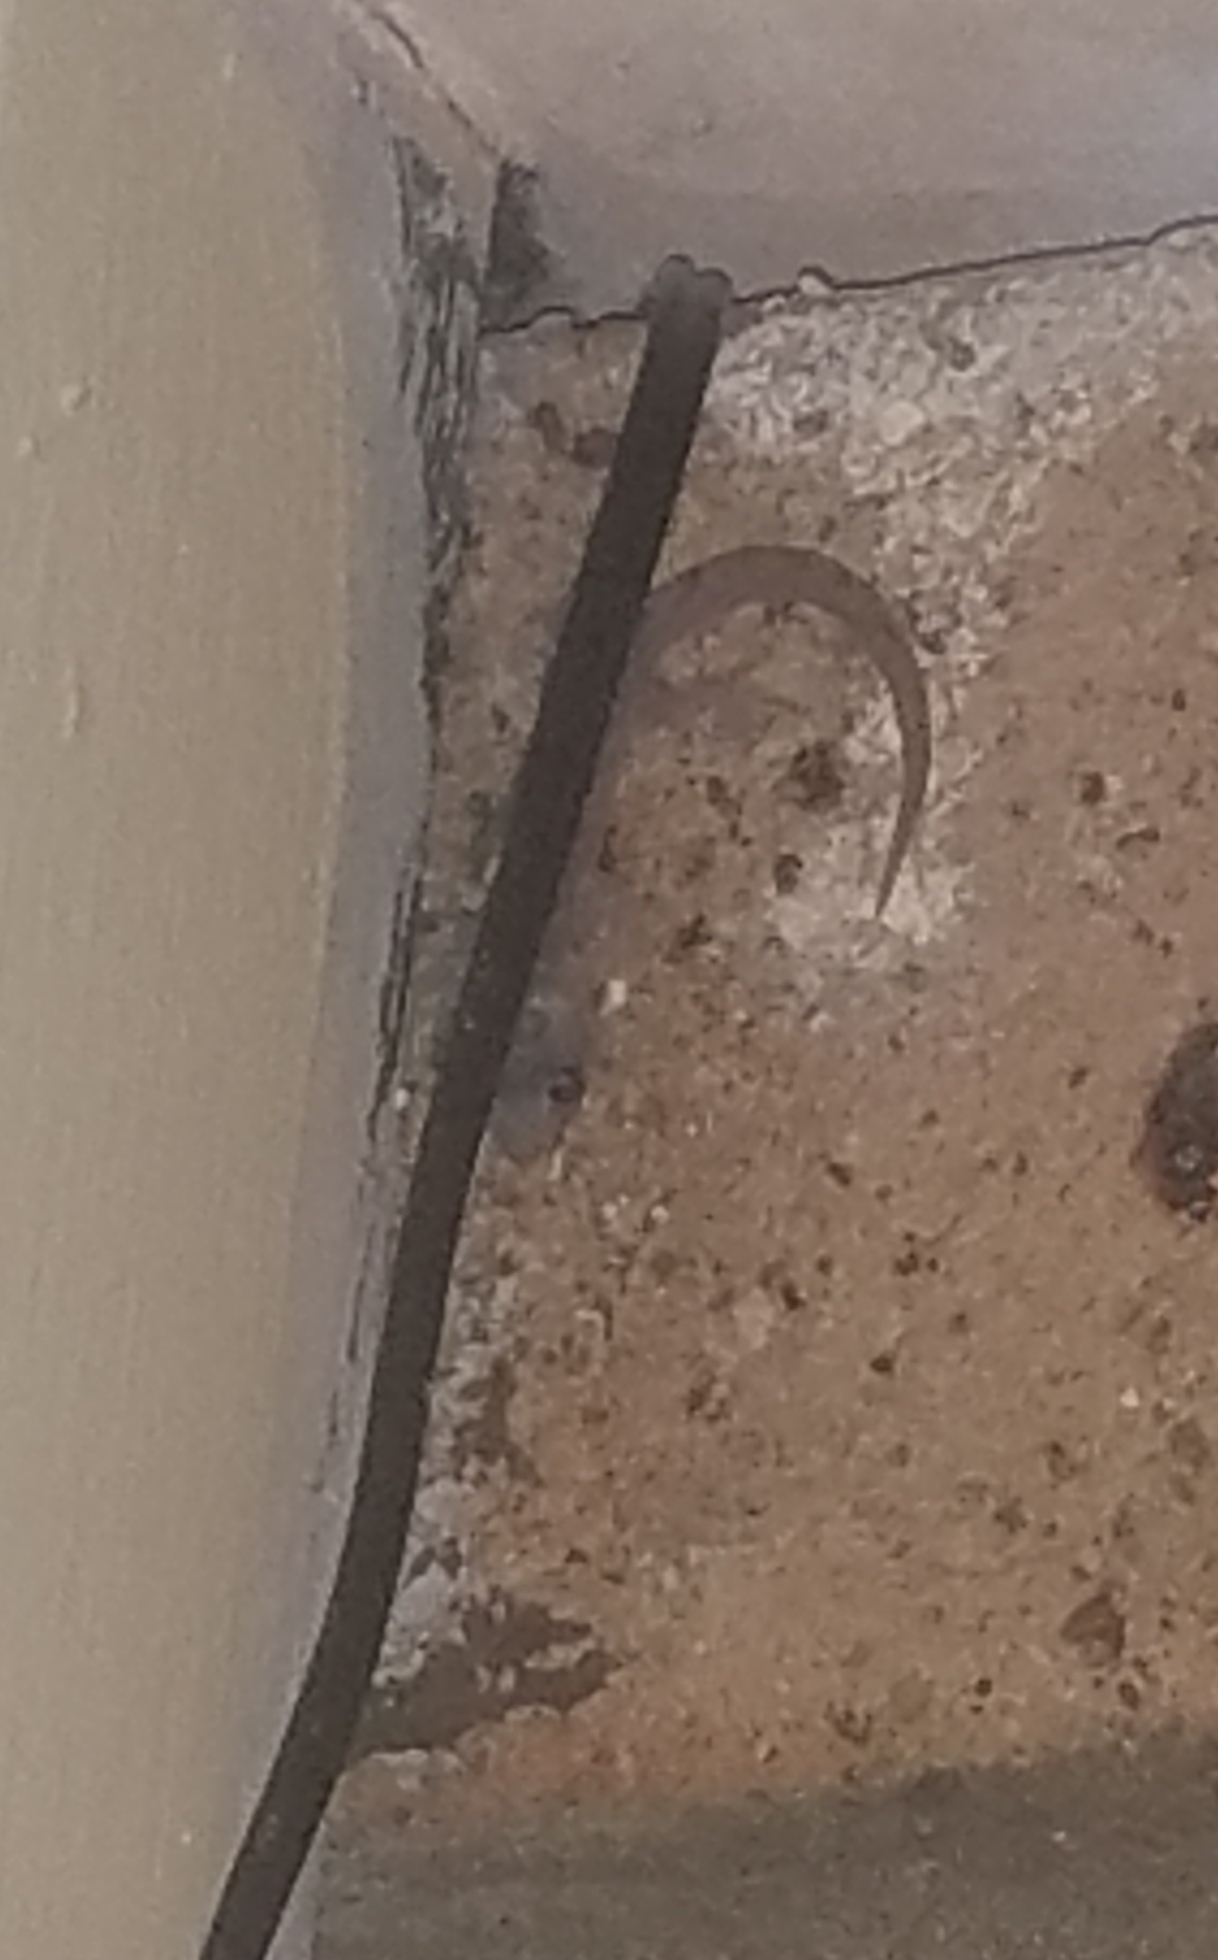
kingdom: Animalia
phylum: Chordata
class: Squamata
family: Gekkonidae
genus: Christinus
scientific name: Christinus marmoratus
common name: Marbled gecko
